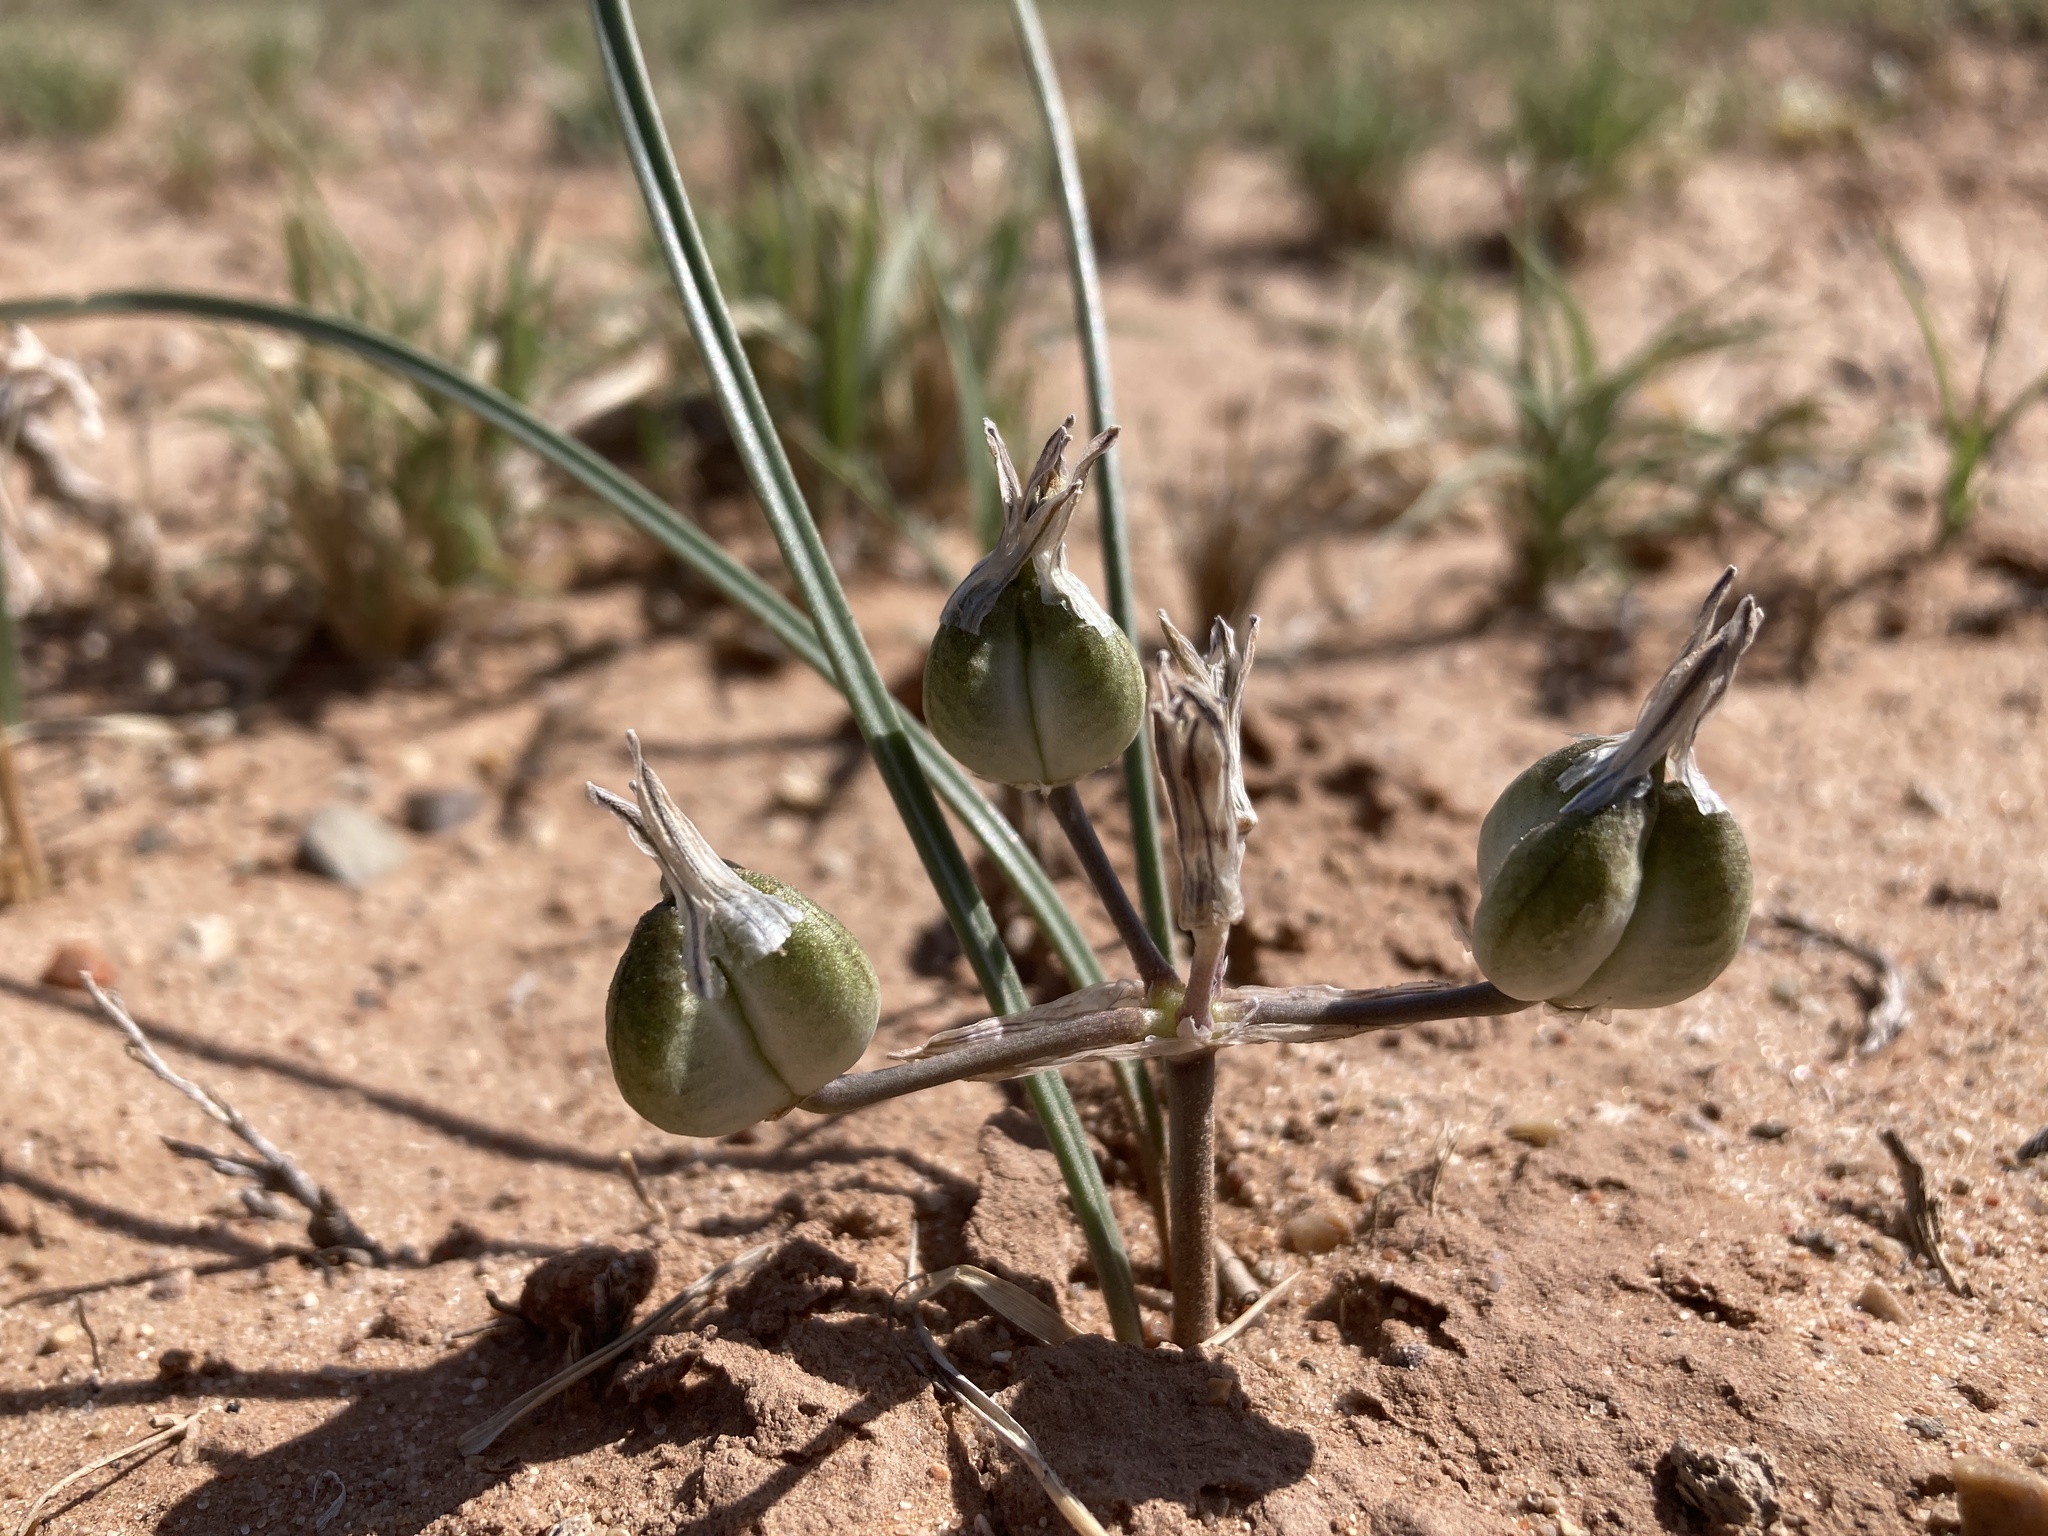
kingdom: Plantae
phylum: Tracheophyta
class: Liliopsida
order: Asparagales
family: Asparagaceae
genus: Androstephium
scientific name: Androstephium breviflorum
